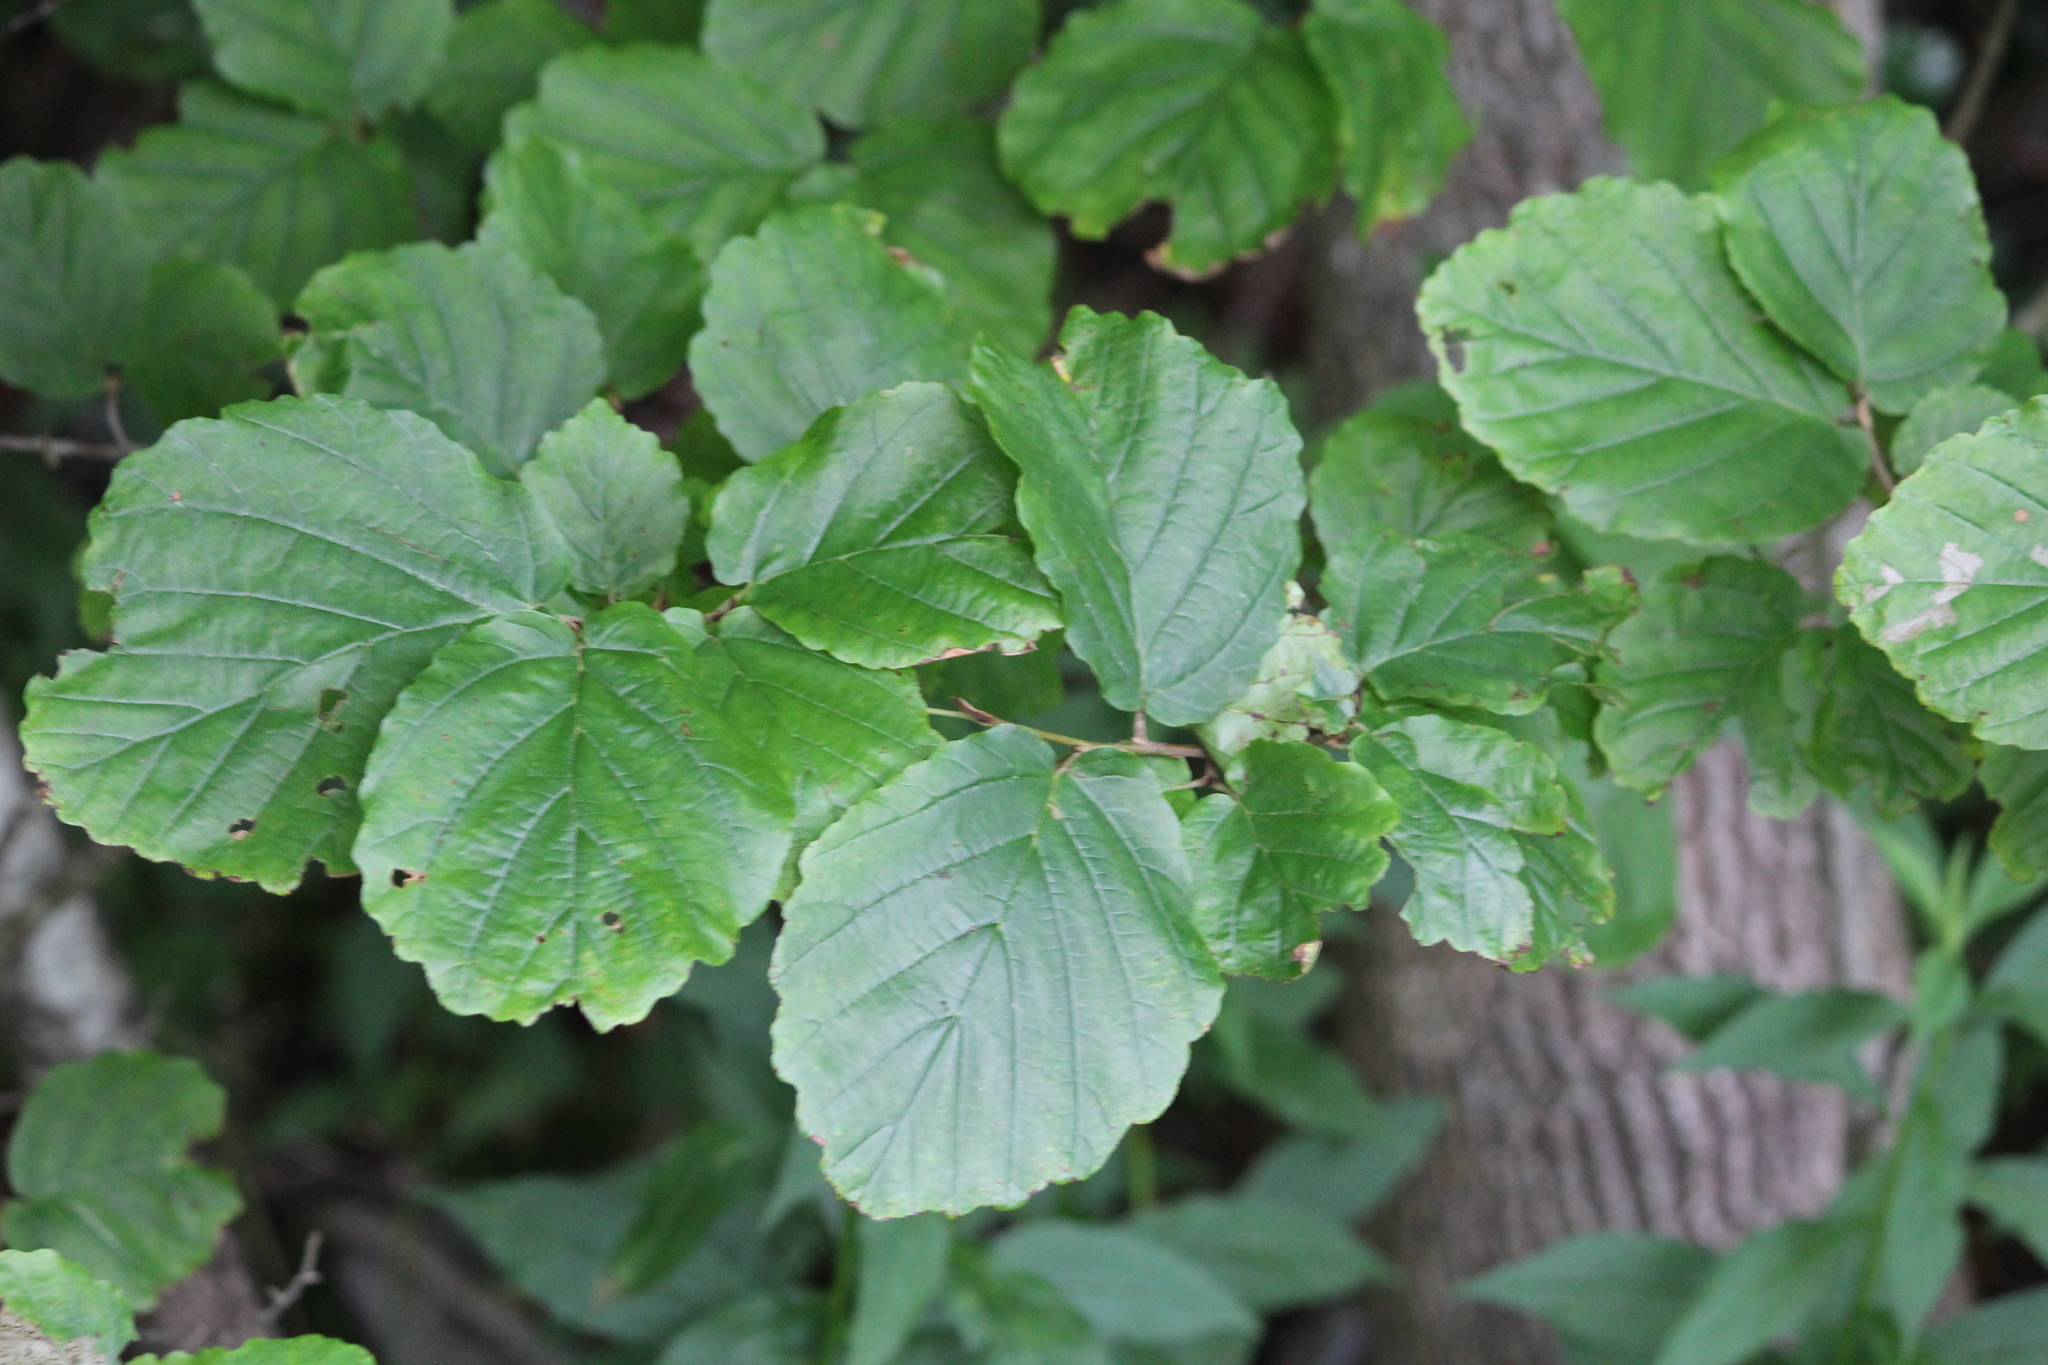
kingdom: Plantae
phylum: Tracheophyta
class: Magnoliopsida
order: Saxifragales
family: Hamamelidaceae
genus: Hamamelis
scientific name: Hamamelis virginiana
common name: Witch-hazel
